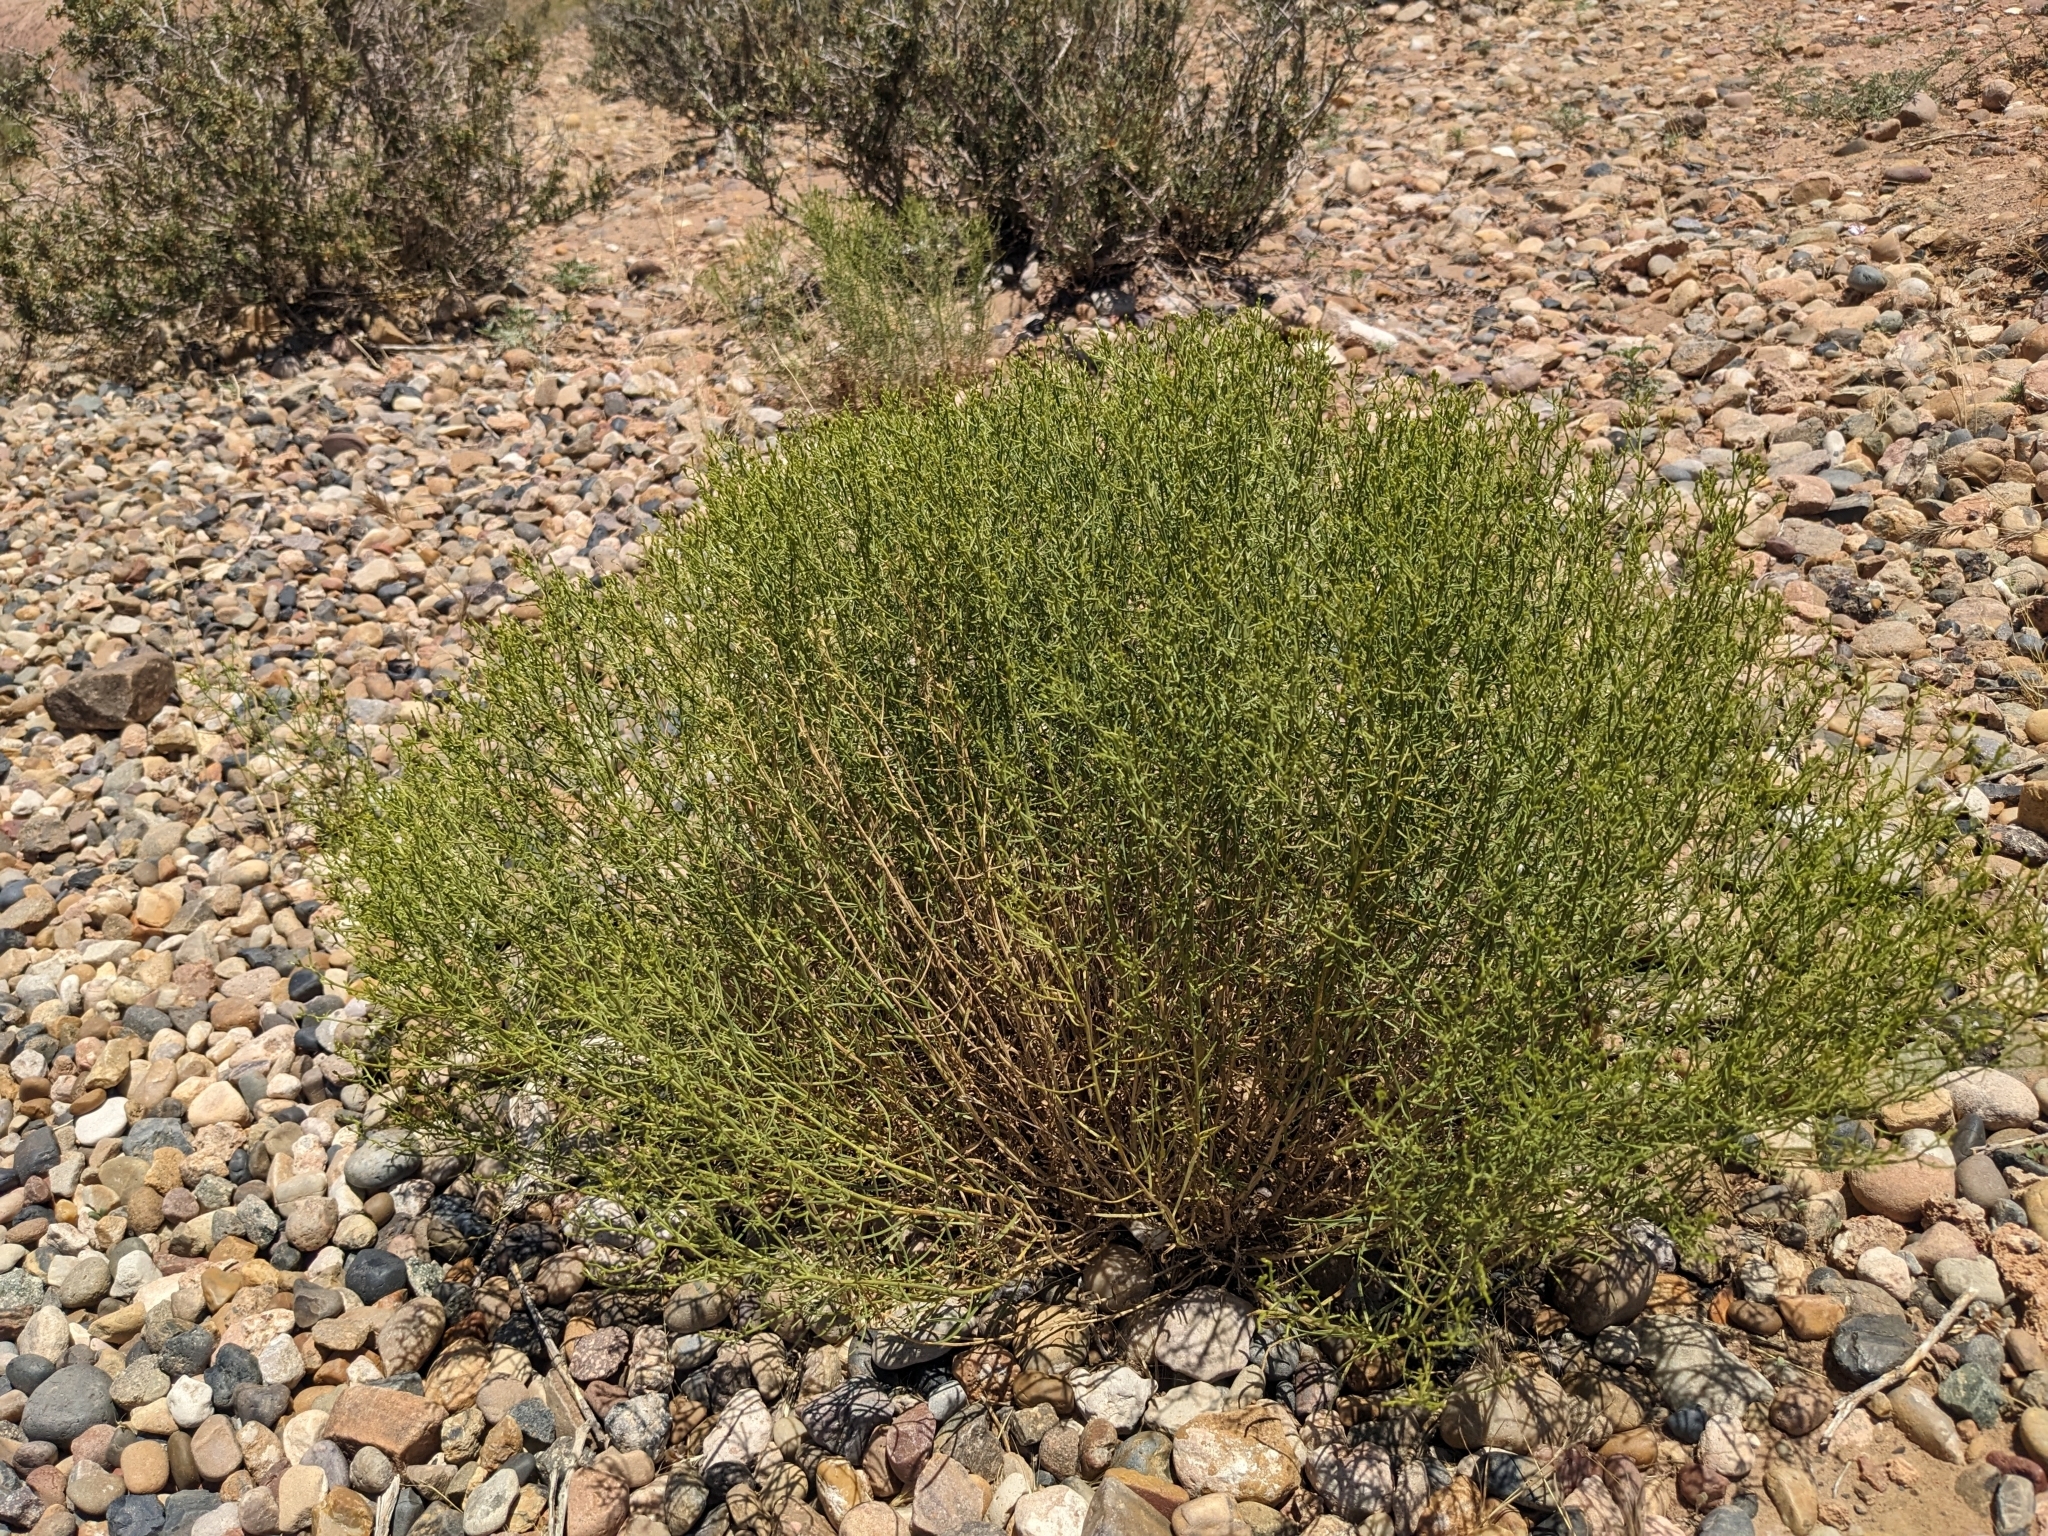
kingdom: Plantae
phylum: Tracheophyta
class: Magnoliopsida
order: Asterales
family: Asteraceae
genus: Gutierrezia
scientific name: Gutierrezia sarothrae
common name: Broom snakeweed
